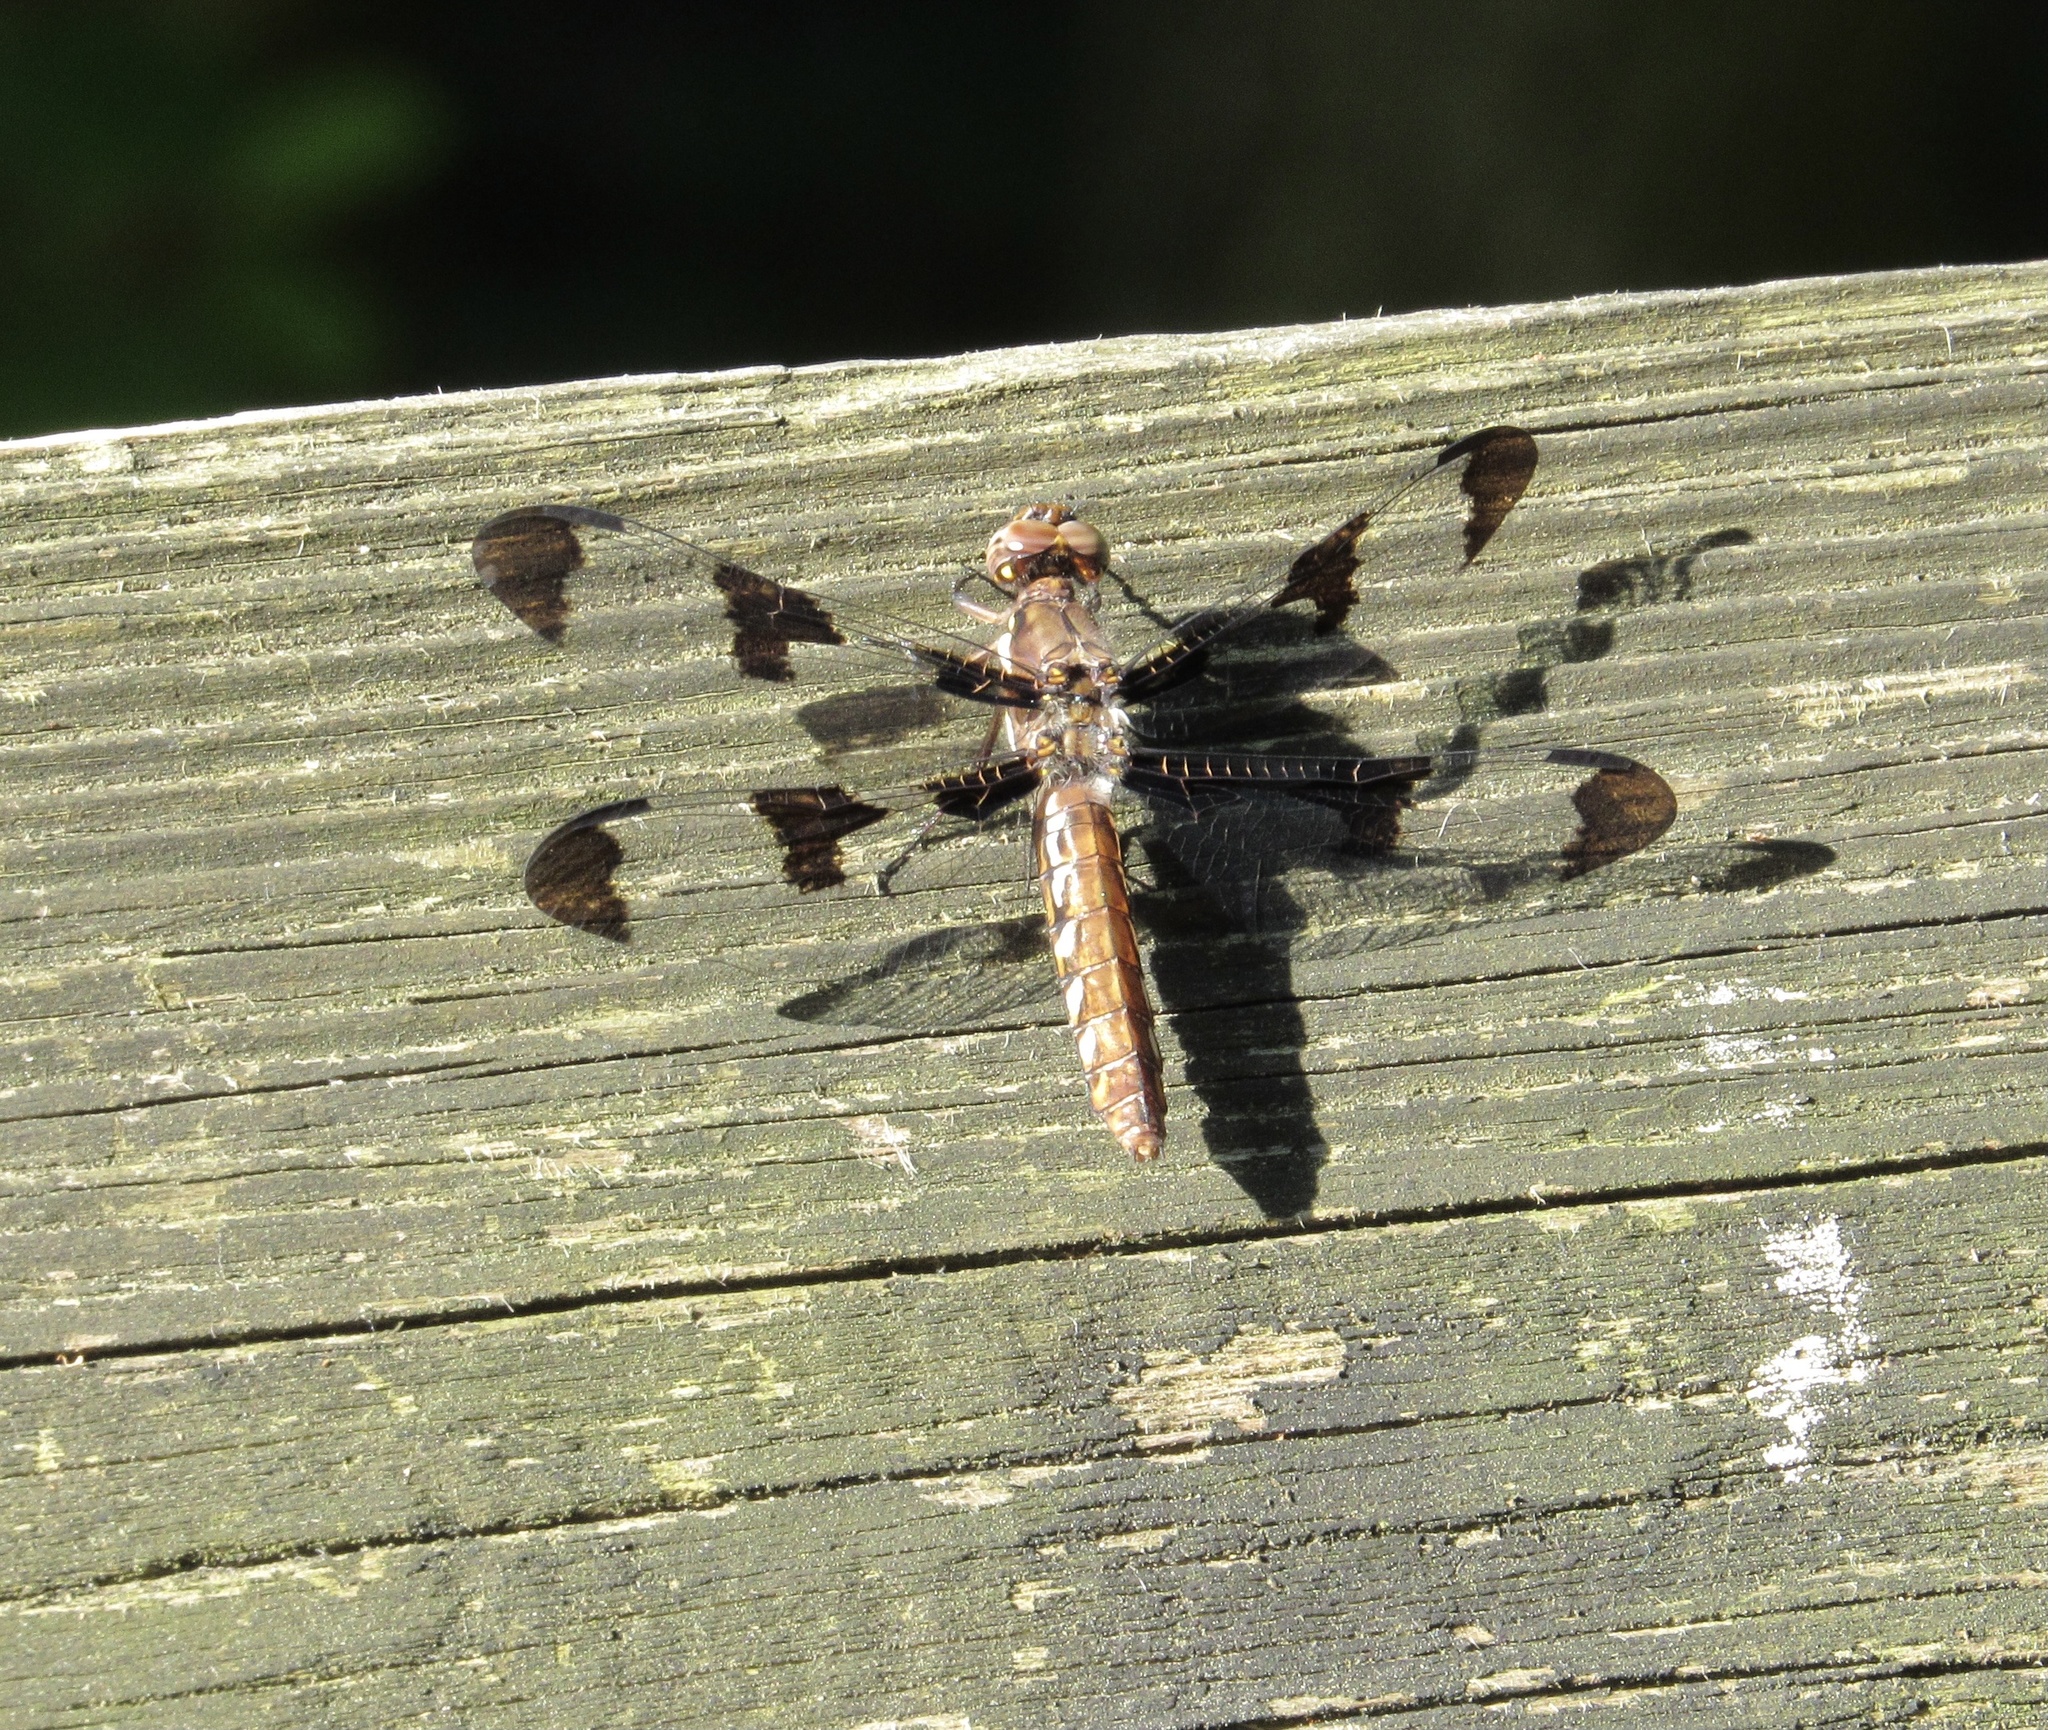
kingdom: Animalia
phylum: Arthropoda
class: Insecta
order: Odonata
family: Libellulidae
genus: Plathemis
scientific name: Plathemis lydia
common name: Common whitetail
